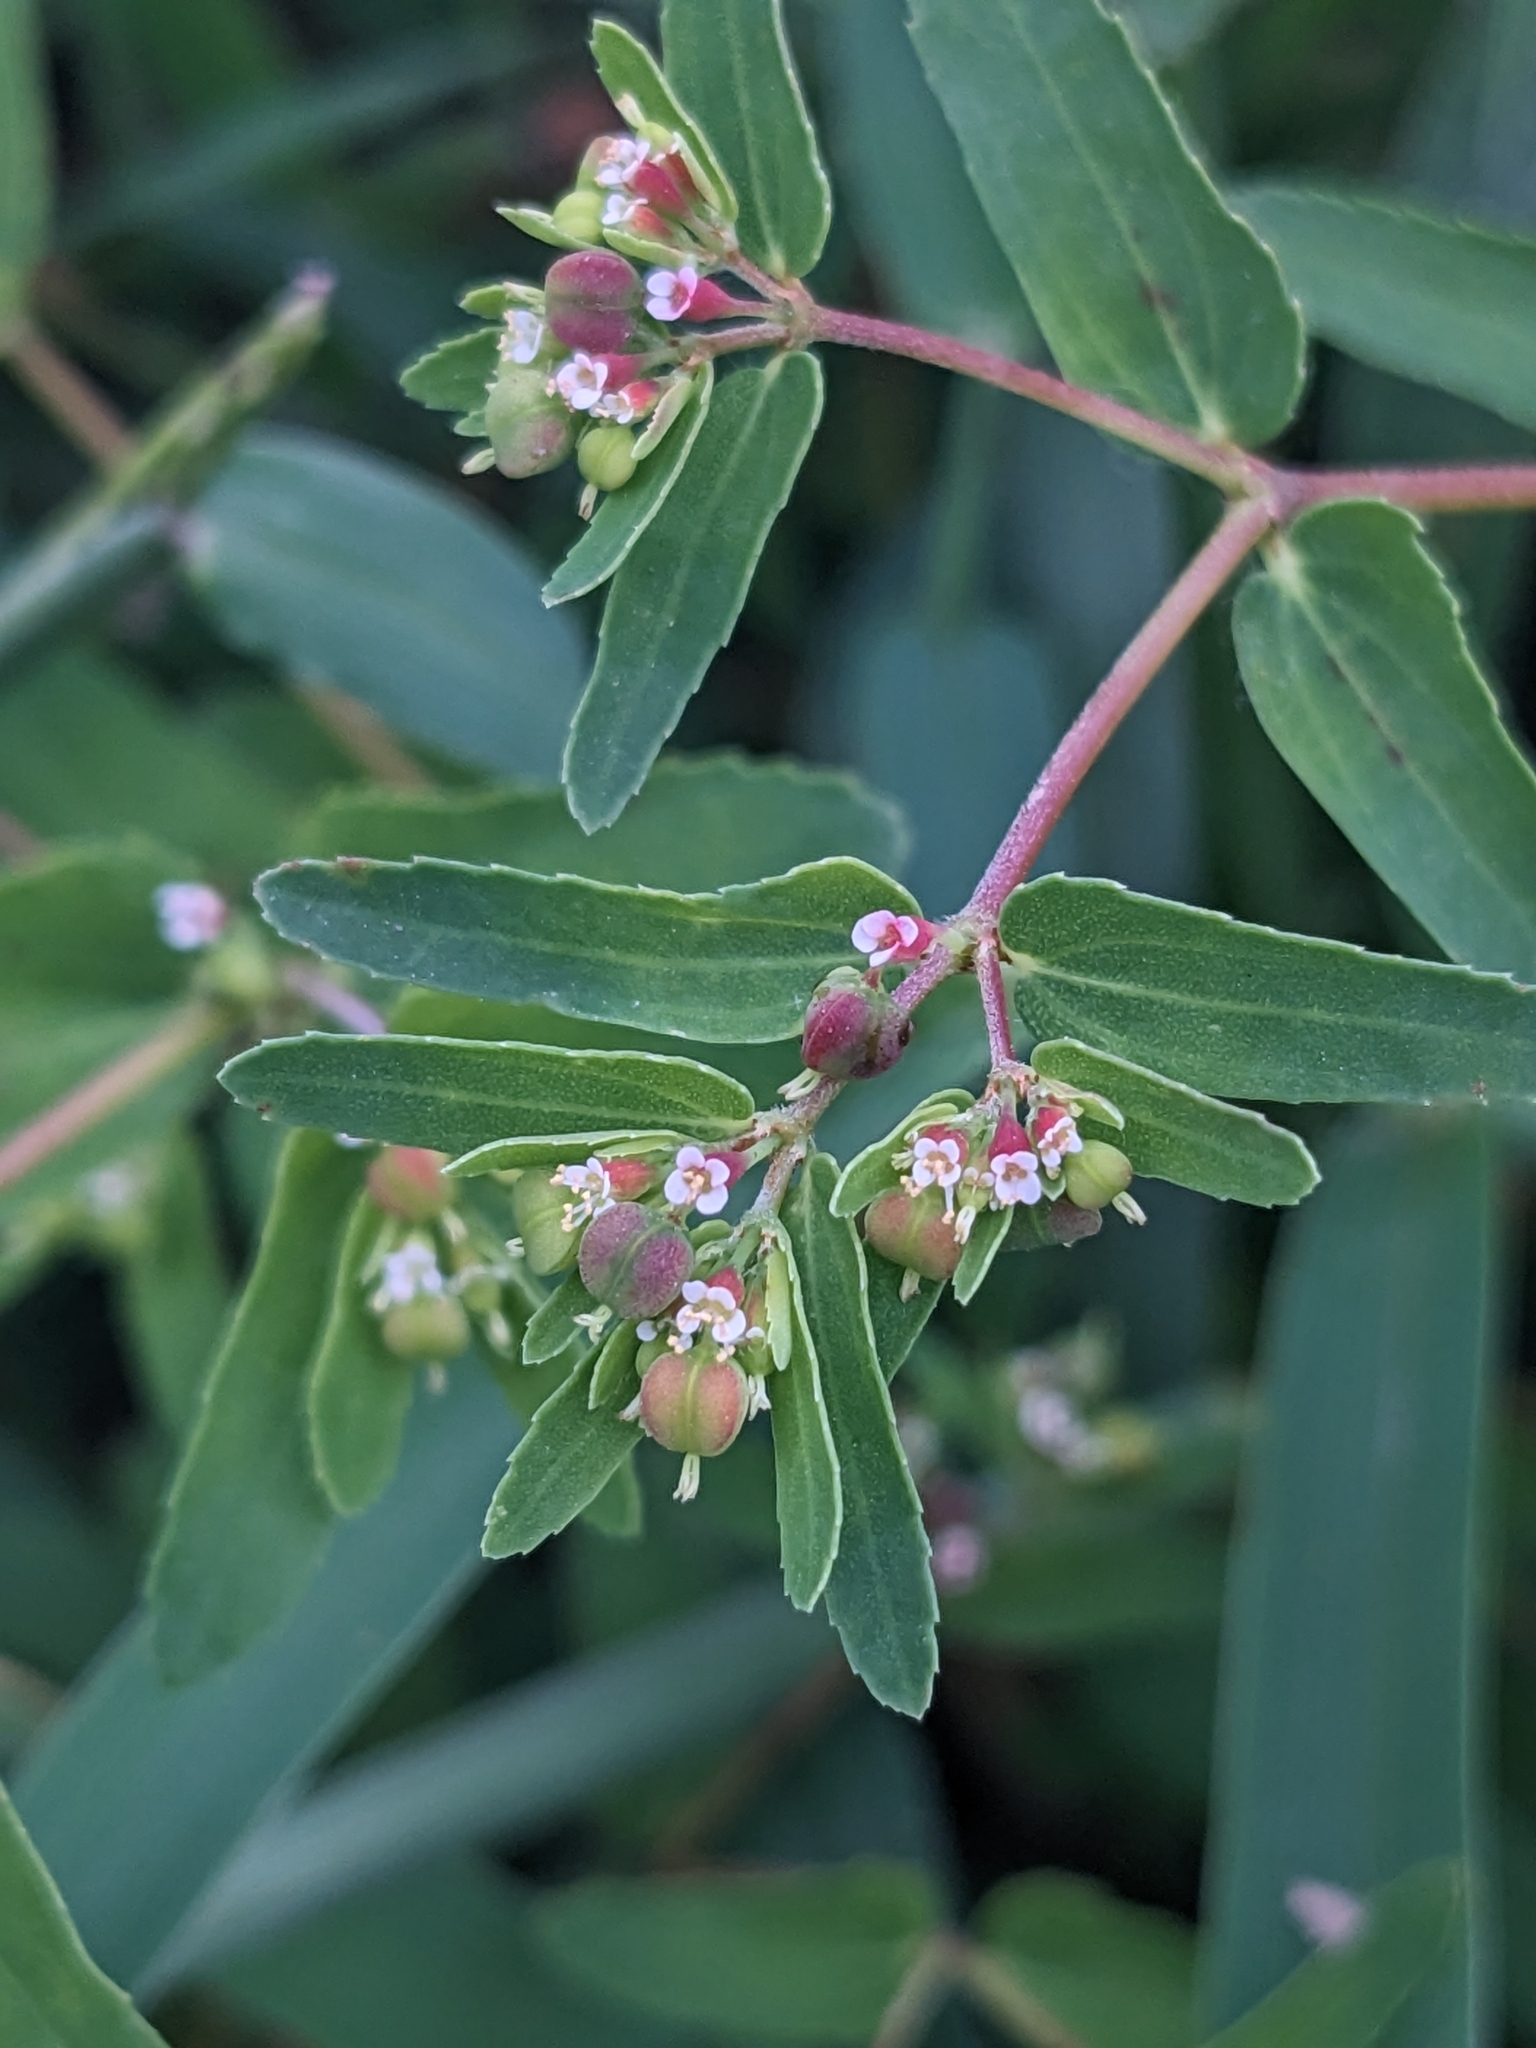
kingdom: Plantae
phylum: Tracheophyta
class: Magnoliopsida
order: Malpighiales
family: Euphorbiaceae
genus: Euphorbia
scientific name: Euphorbia nutans
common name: Eyebane
